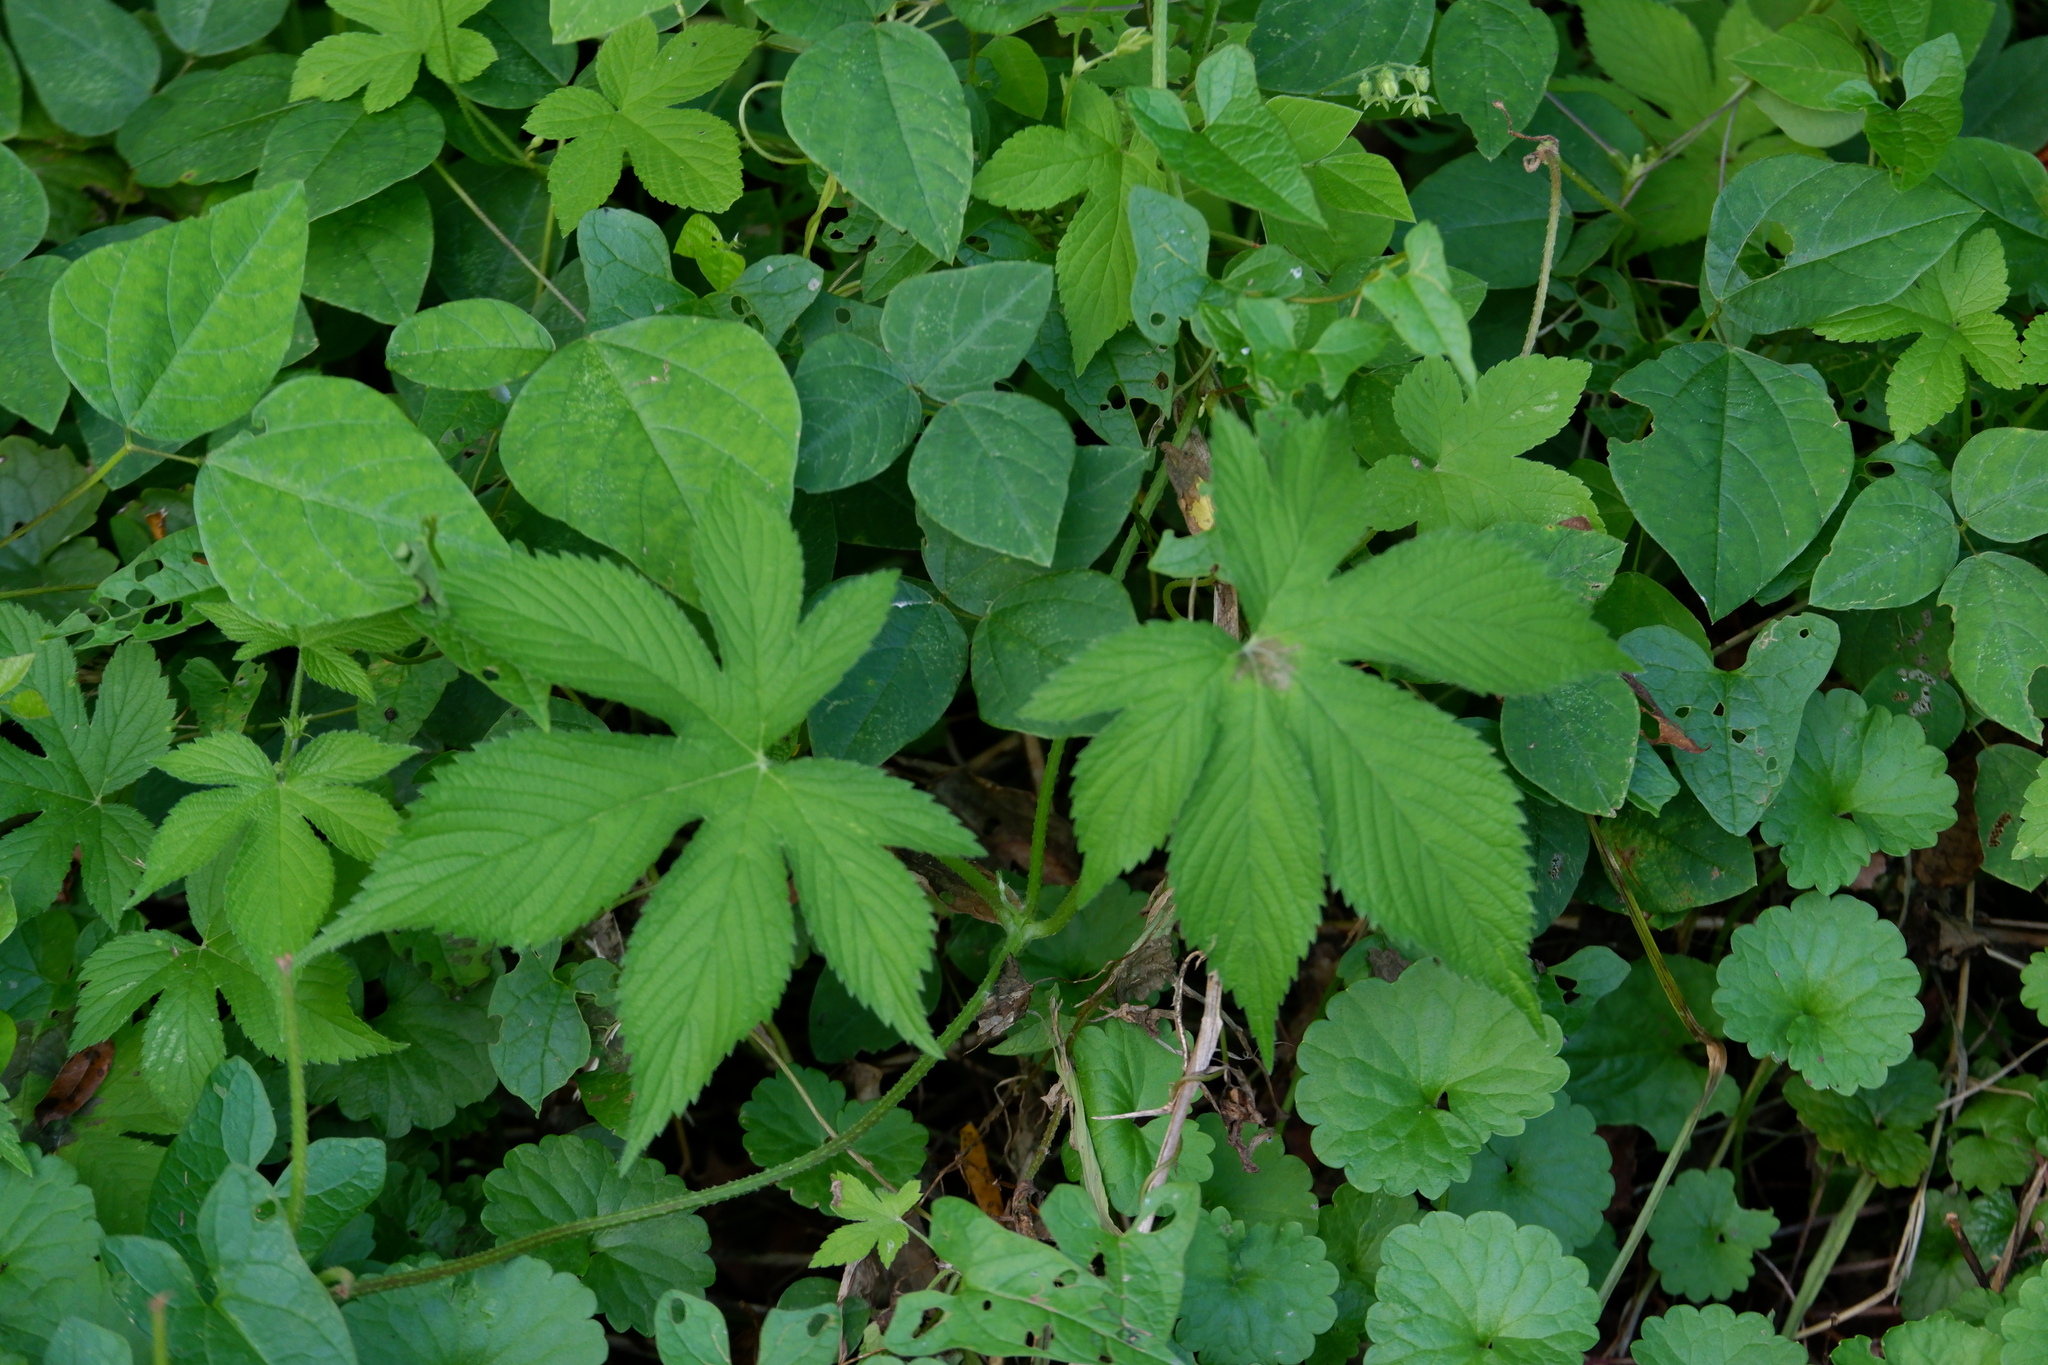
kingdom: Plantae
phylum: Tracheophyta
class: Magnoliopsida
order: Rosales
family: Cannabaceae
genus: Humulus
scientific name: Humulus scandens
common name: Japanese hop
